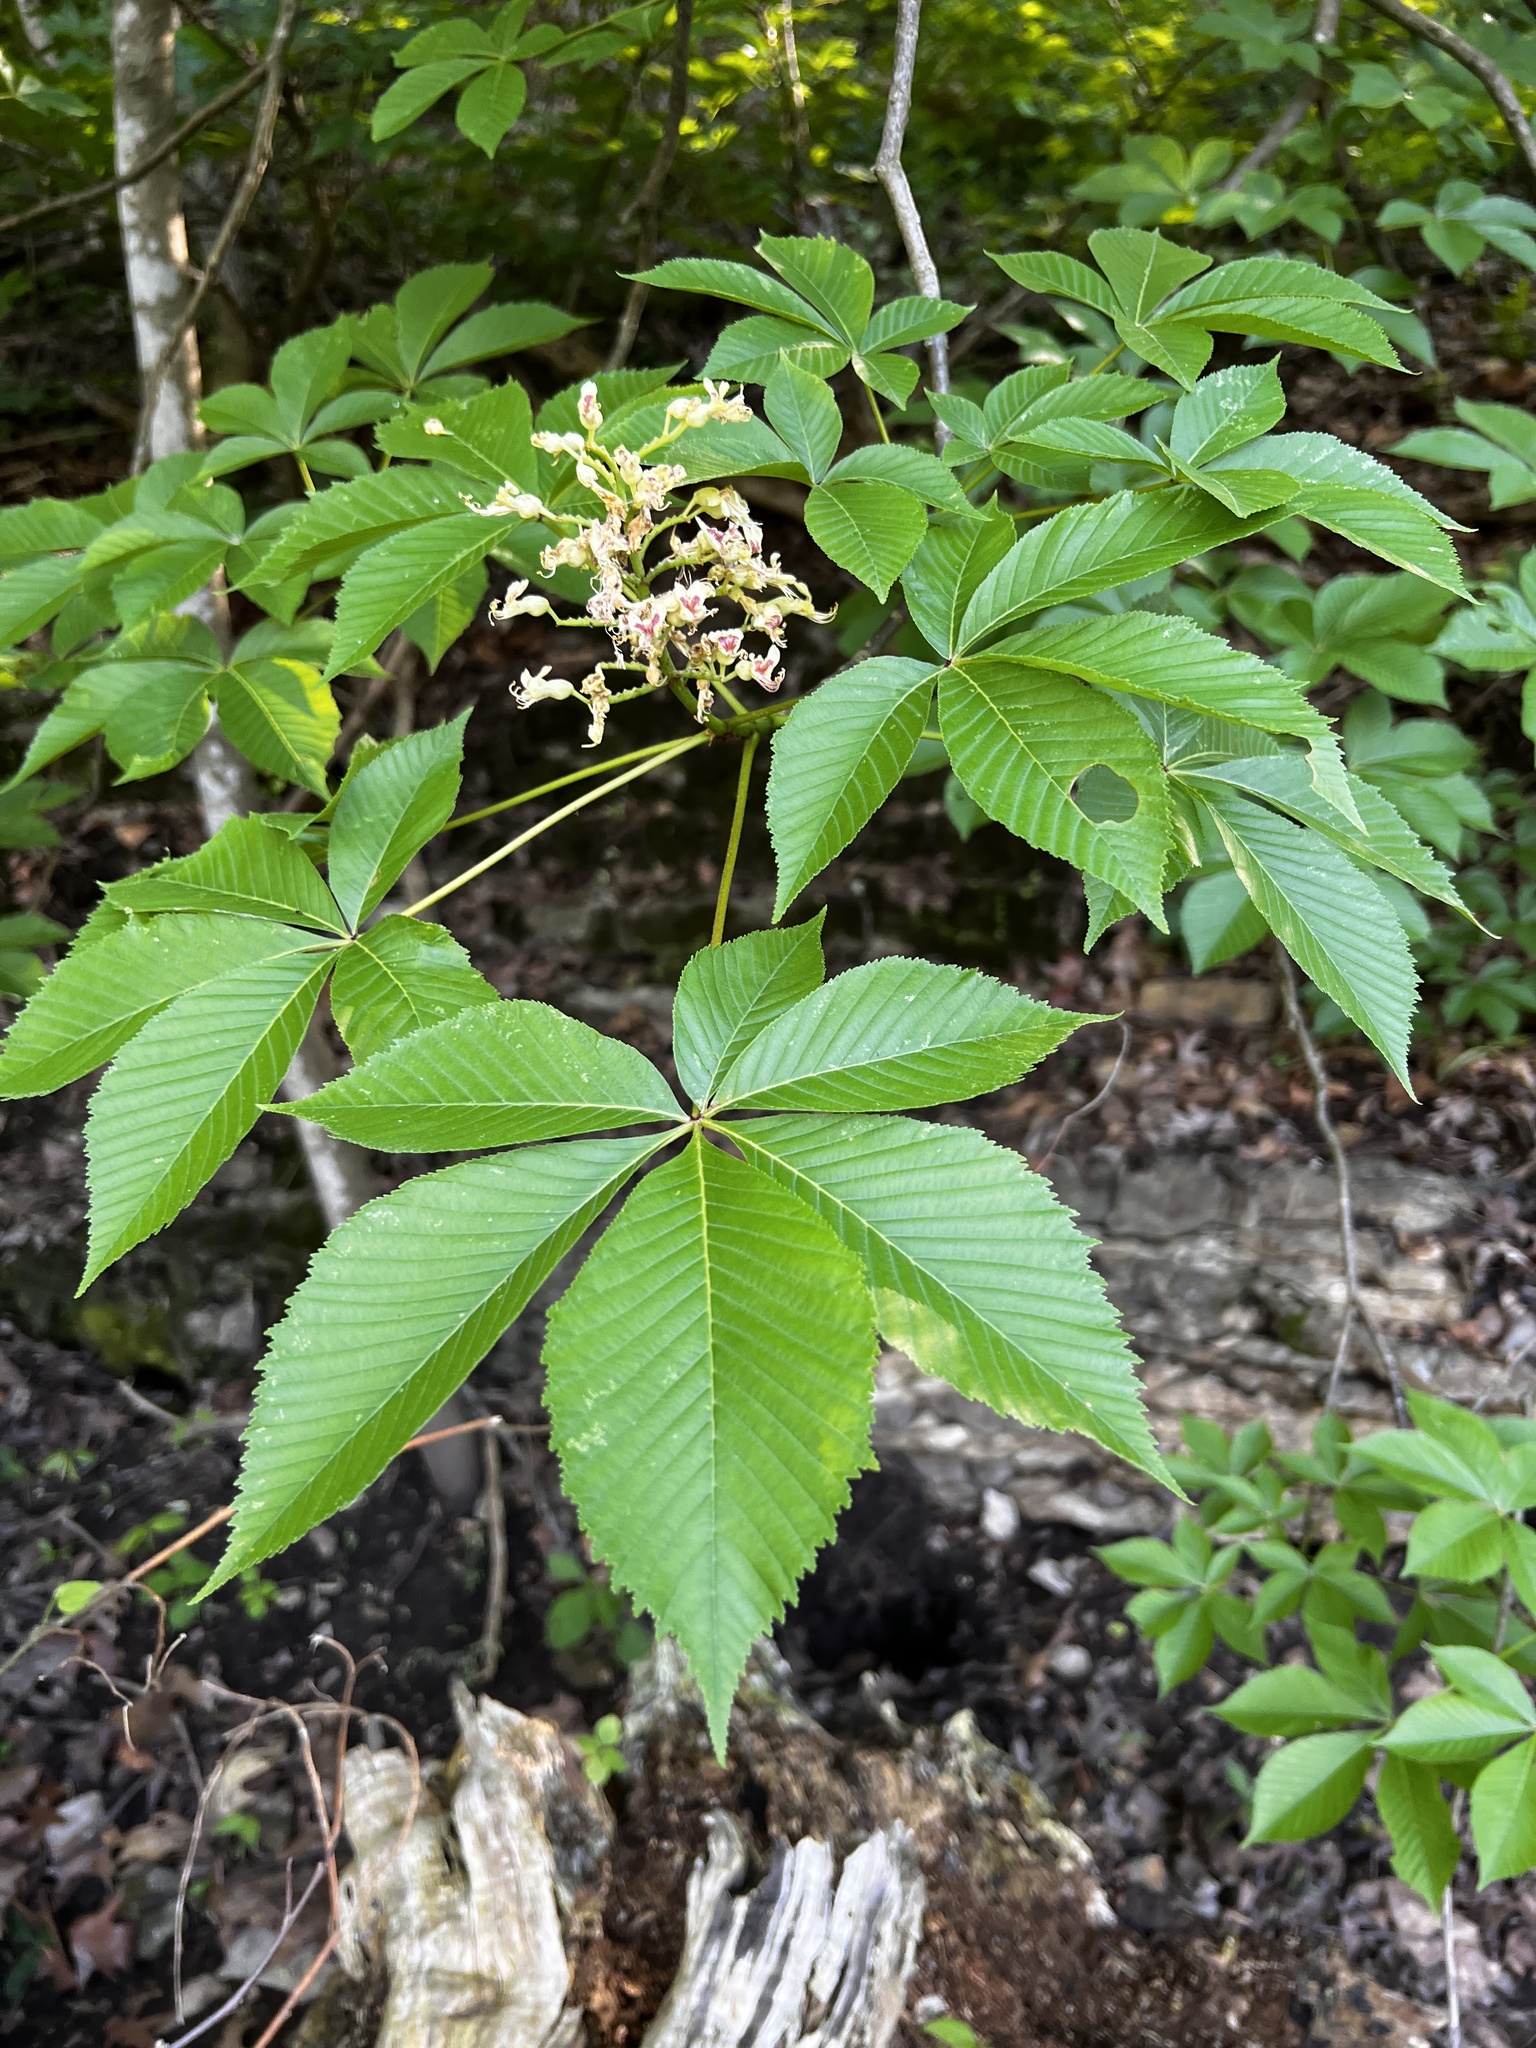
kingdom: Plantae
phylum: Tracheophyta
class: Magnoliopsida
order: Sapindales
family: Sapindaceae
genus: Aesculus
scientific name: Aesculus glabra
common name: Ohio buckeye
